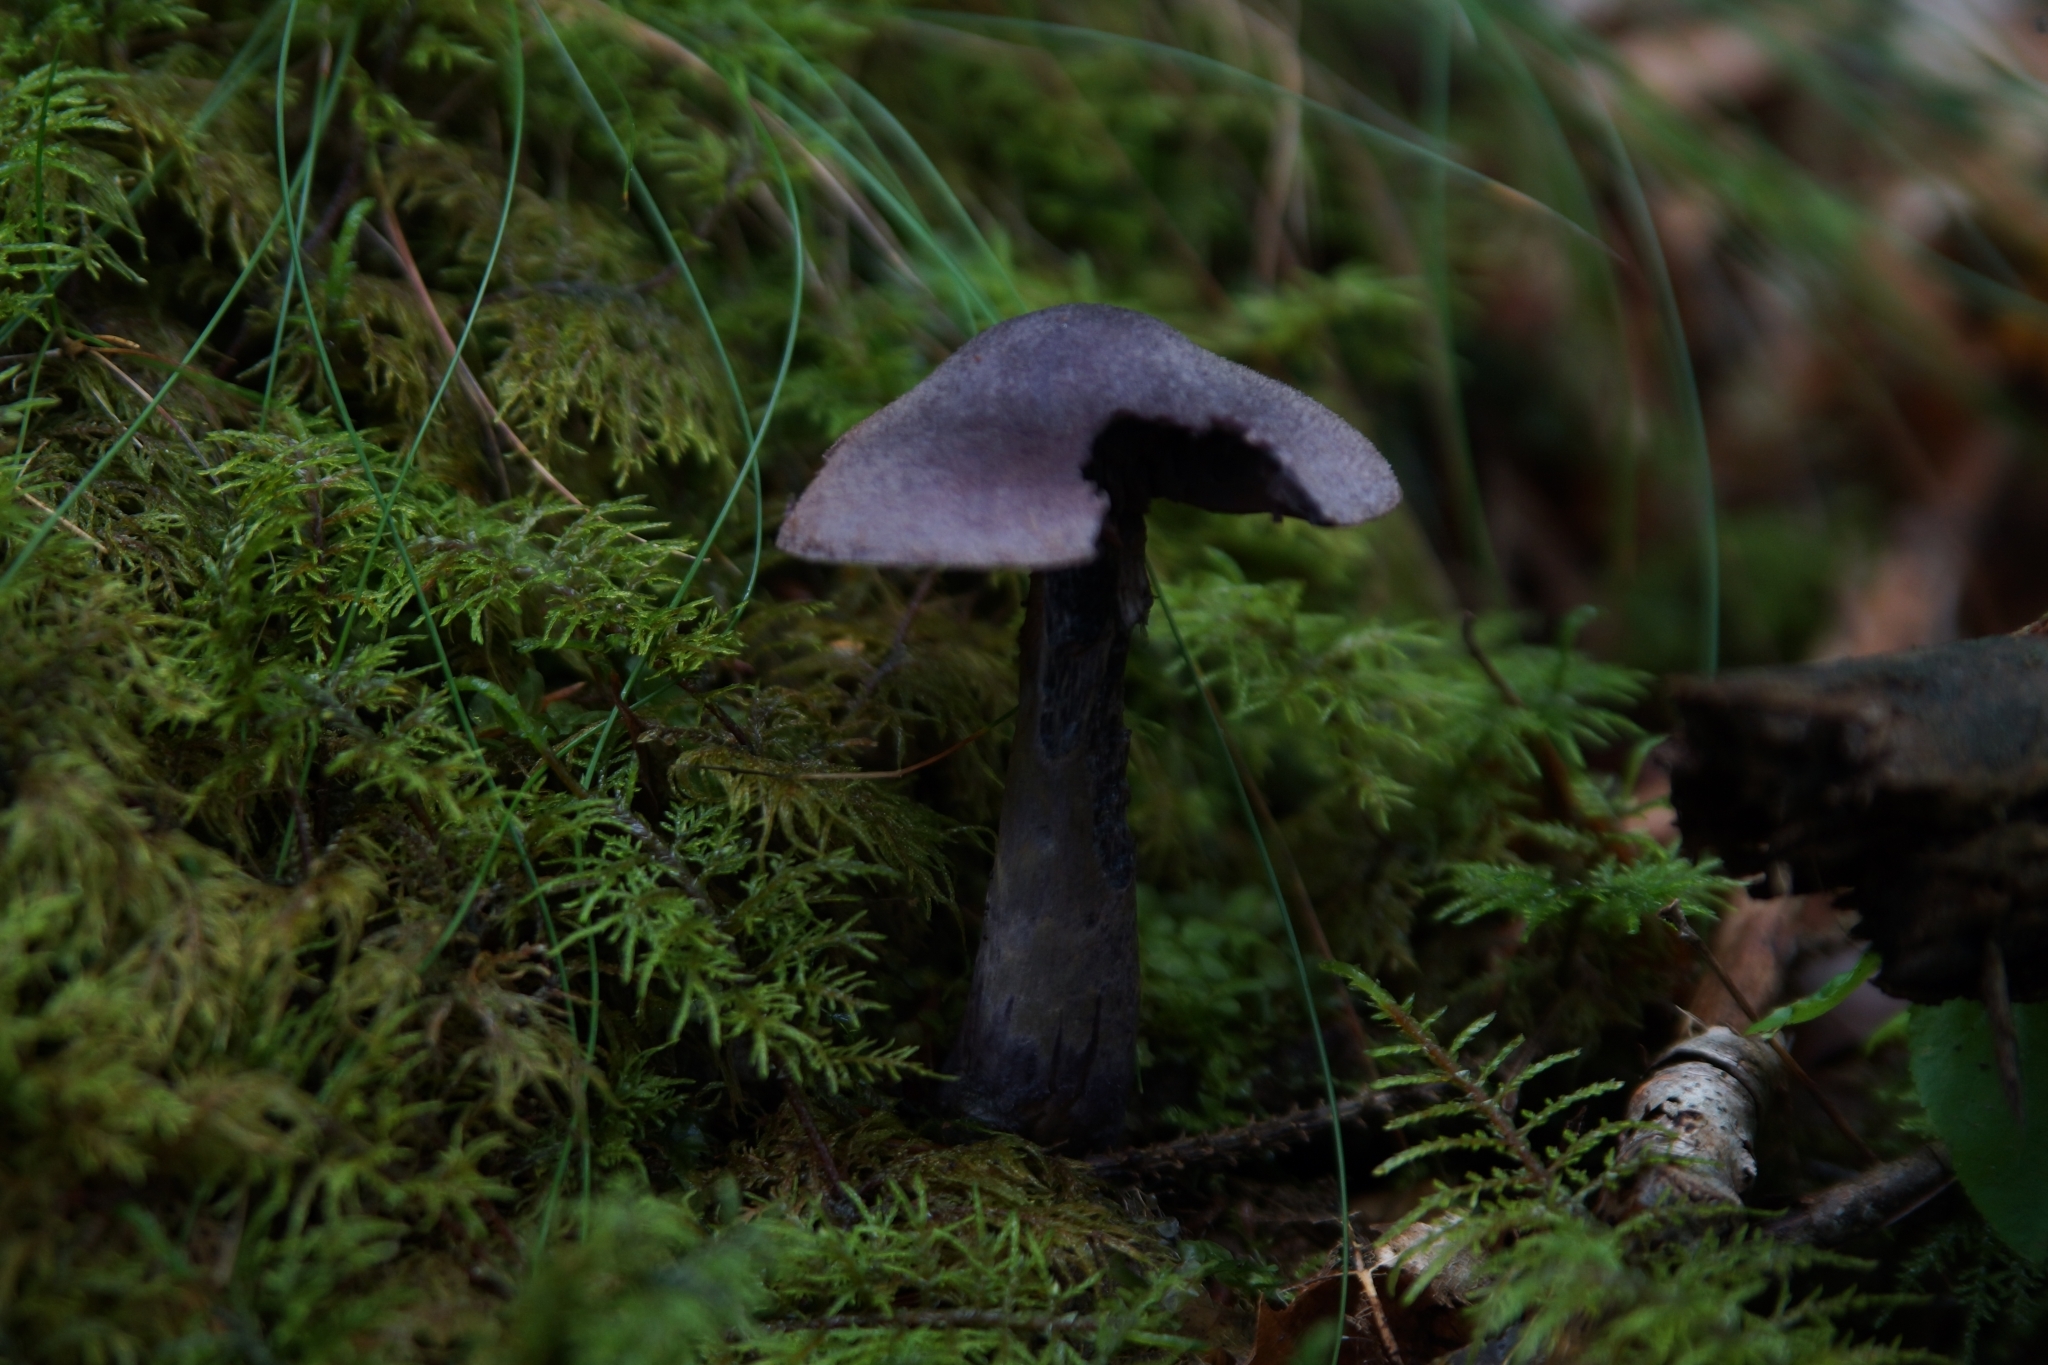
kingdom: Fungi
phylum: Basidiomycota
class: Agaricomycetes
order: Agaricales
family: Cortinariaceae
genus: Cortinarius
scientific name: Cortinarius violaceus
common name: Violet webcap
